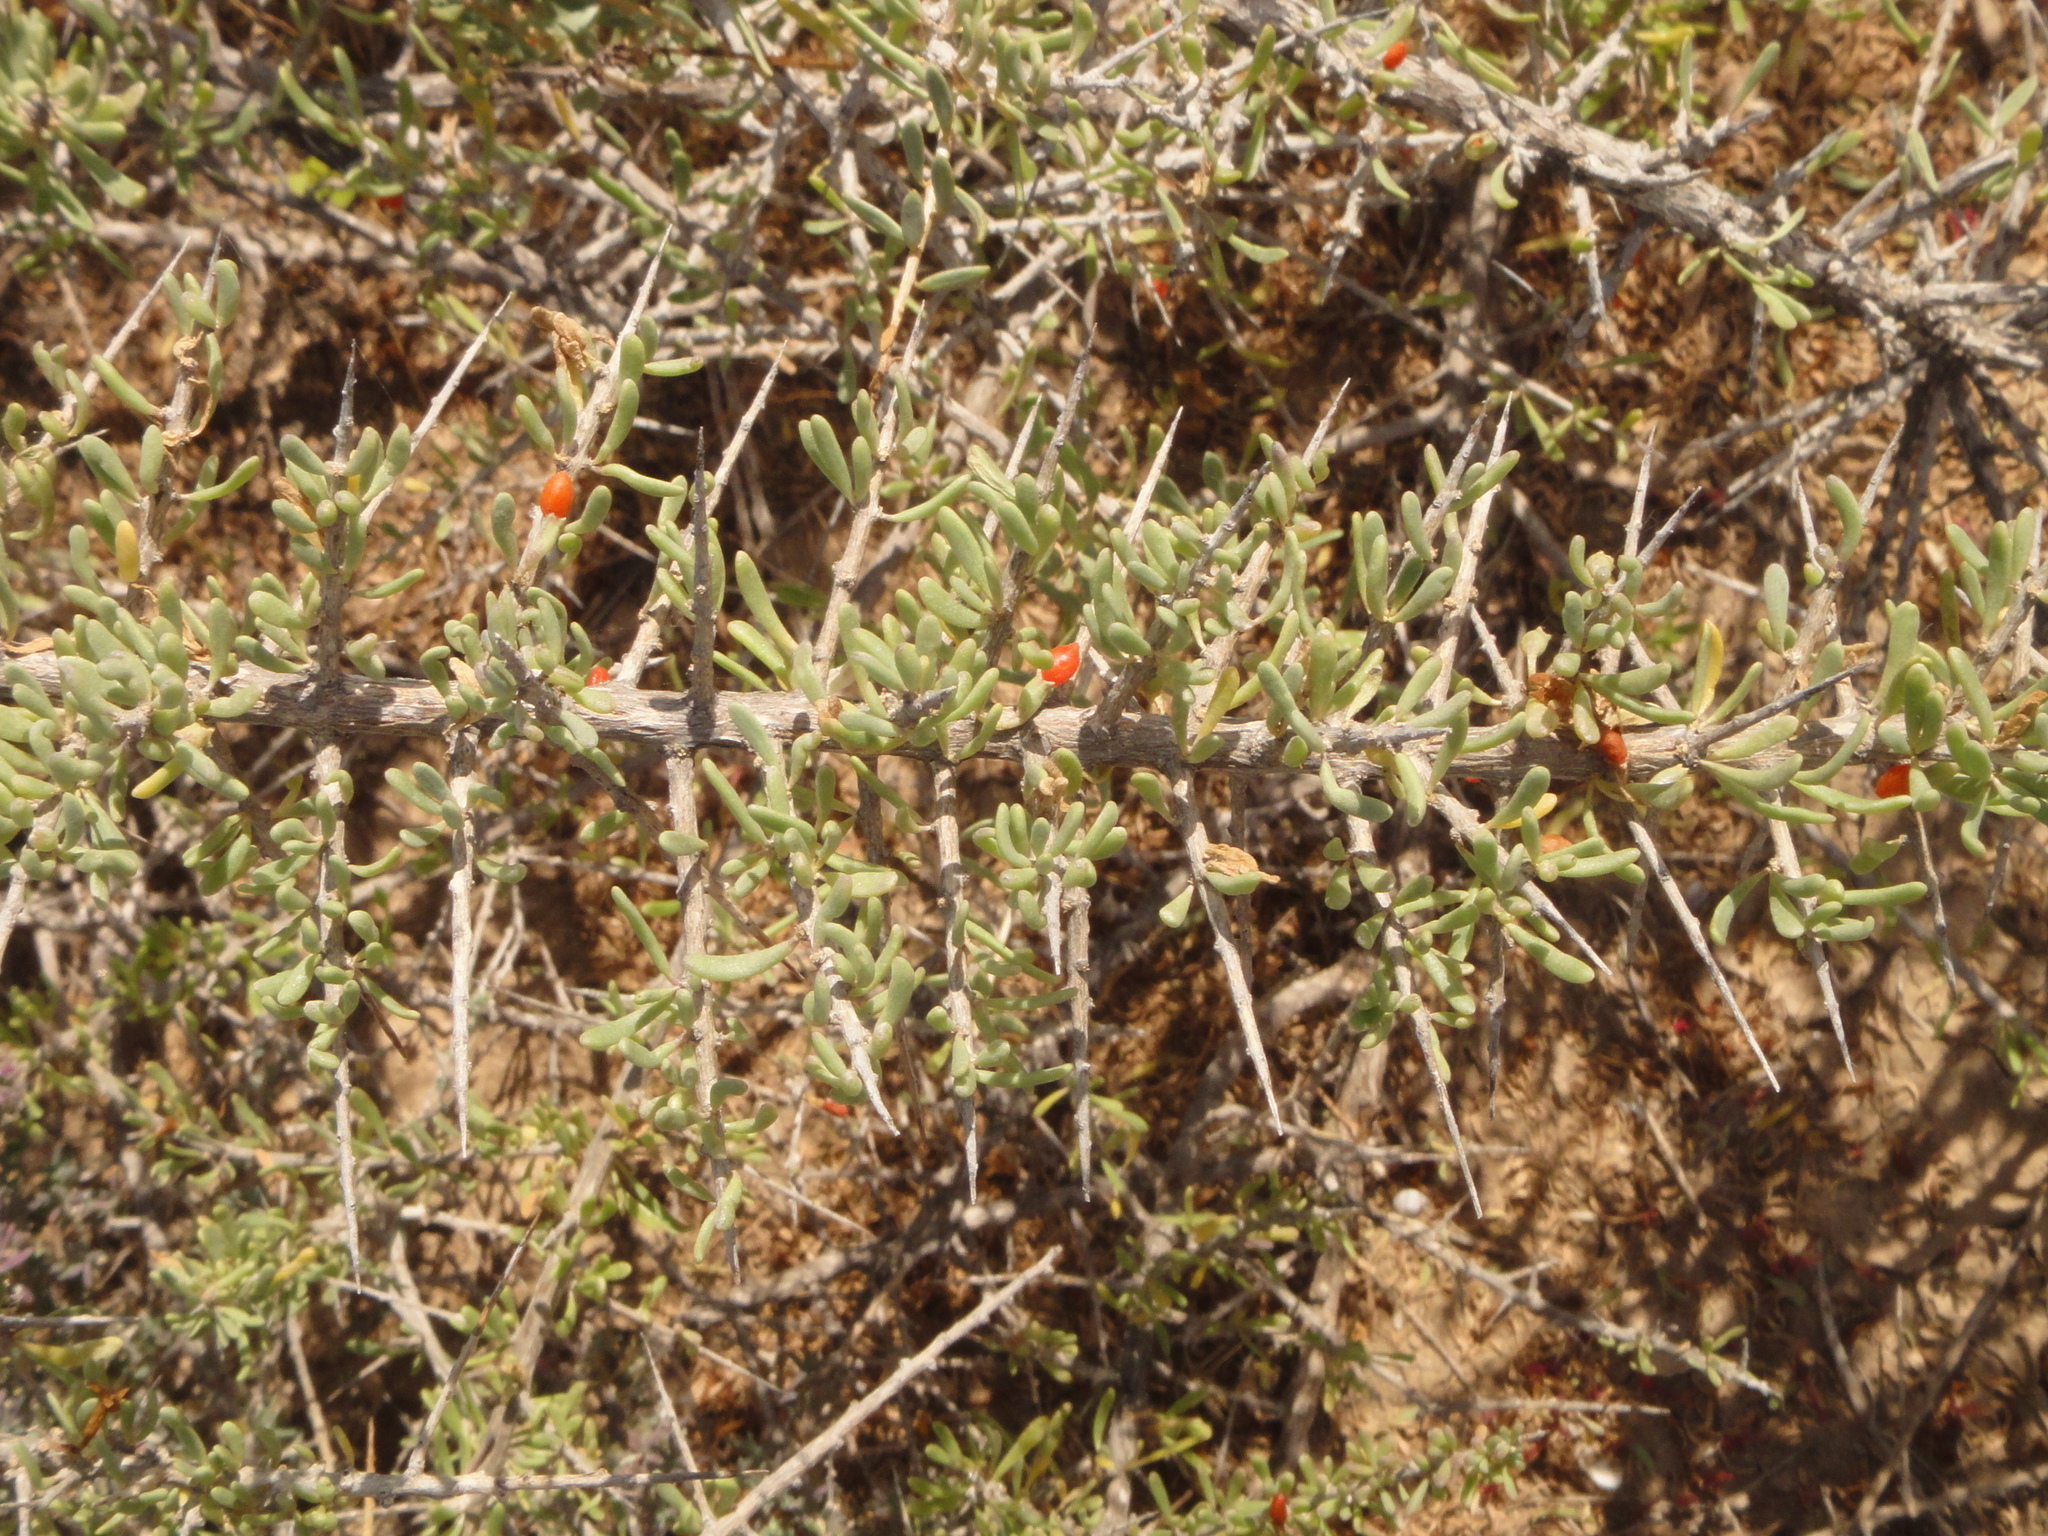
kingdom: Plantae
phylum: Tracheophyta
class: Magnoliopsida
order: Solanales
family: Solanaceae
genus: Lycium
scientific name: Lycium intricatum
